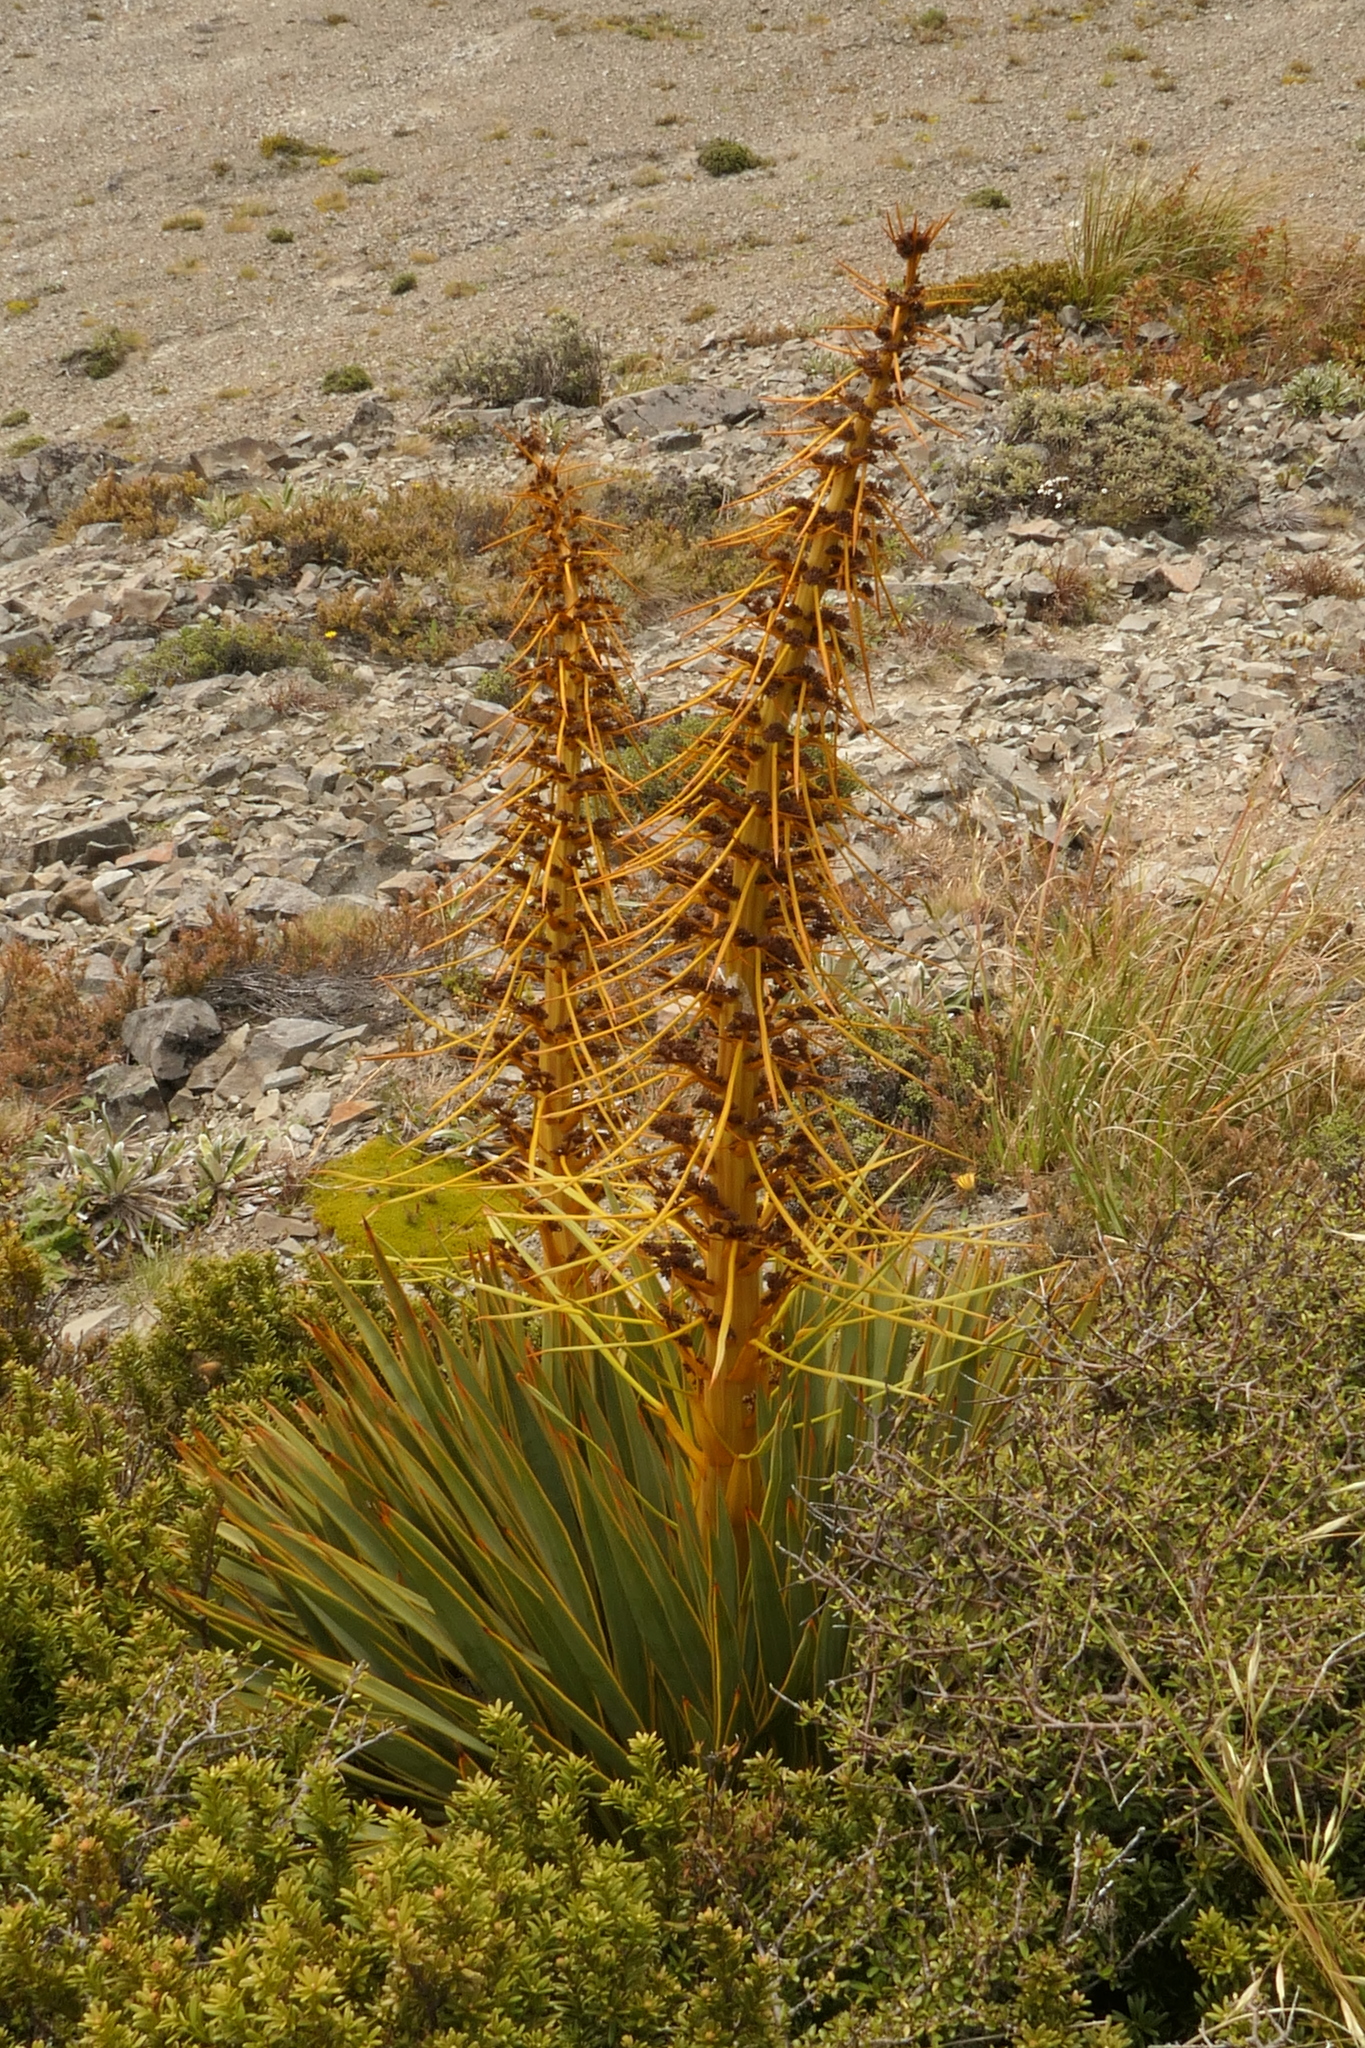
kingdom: Plantae
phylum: Tracheophyta
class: Magnoliopsida
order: Apiales
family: Apiaceae
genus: Aciphylla
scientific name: Aciphylla aurea
